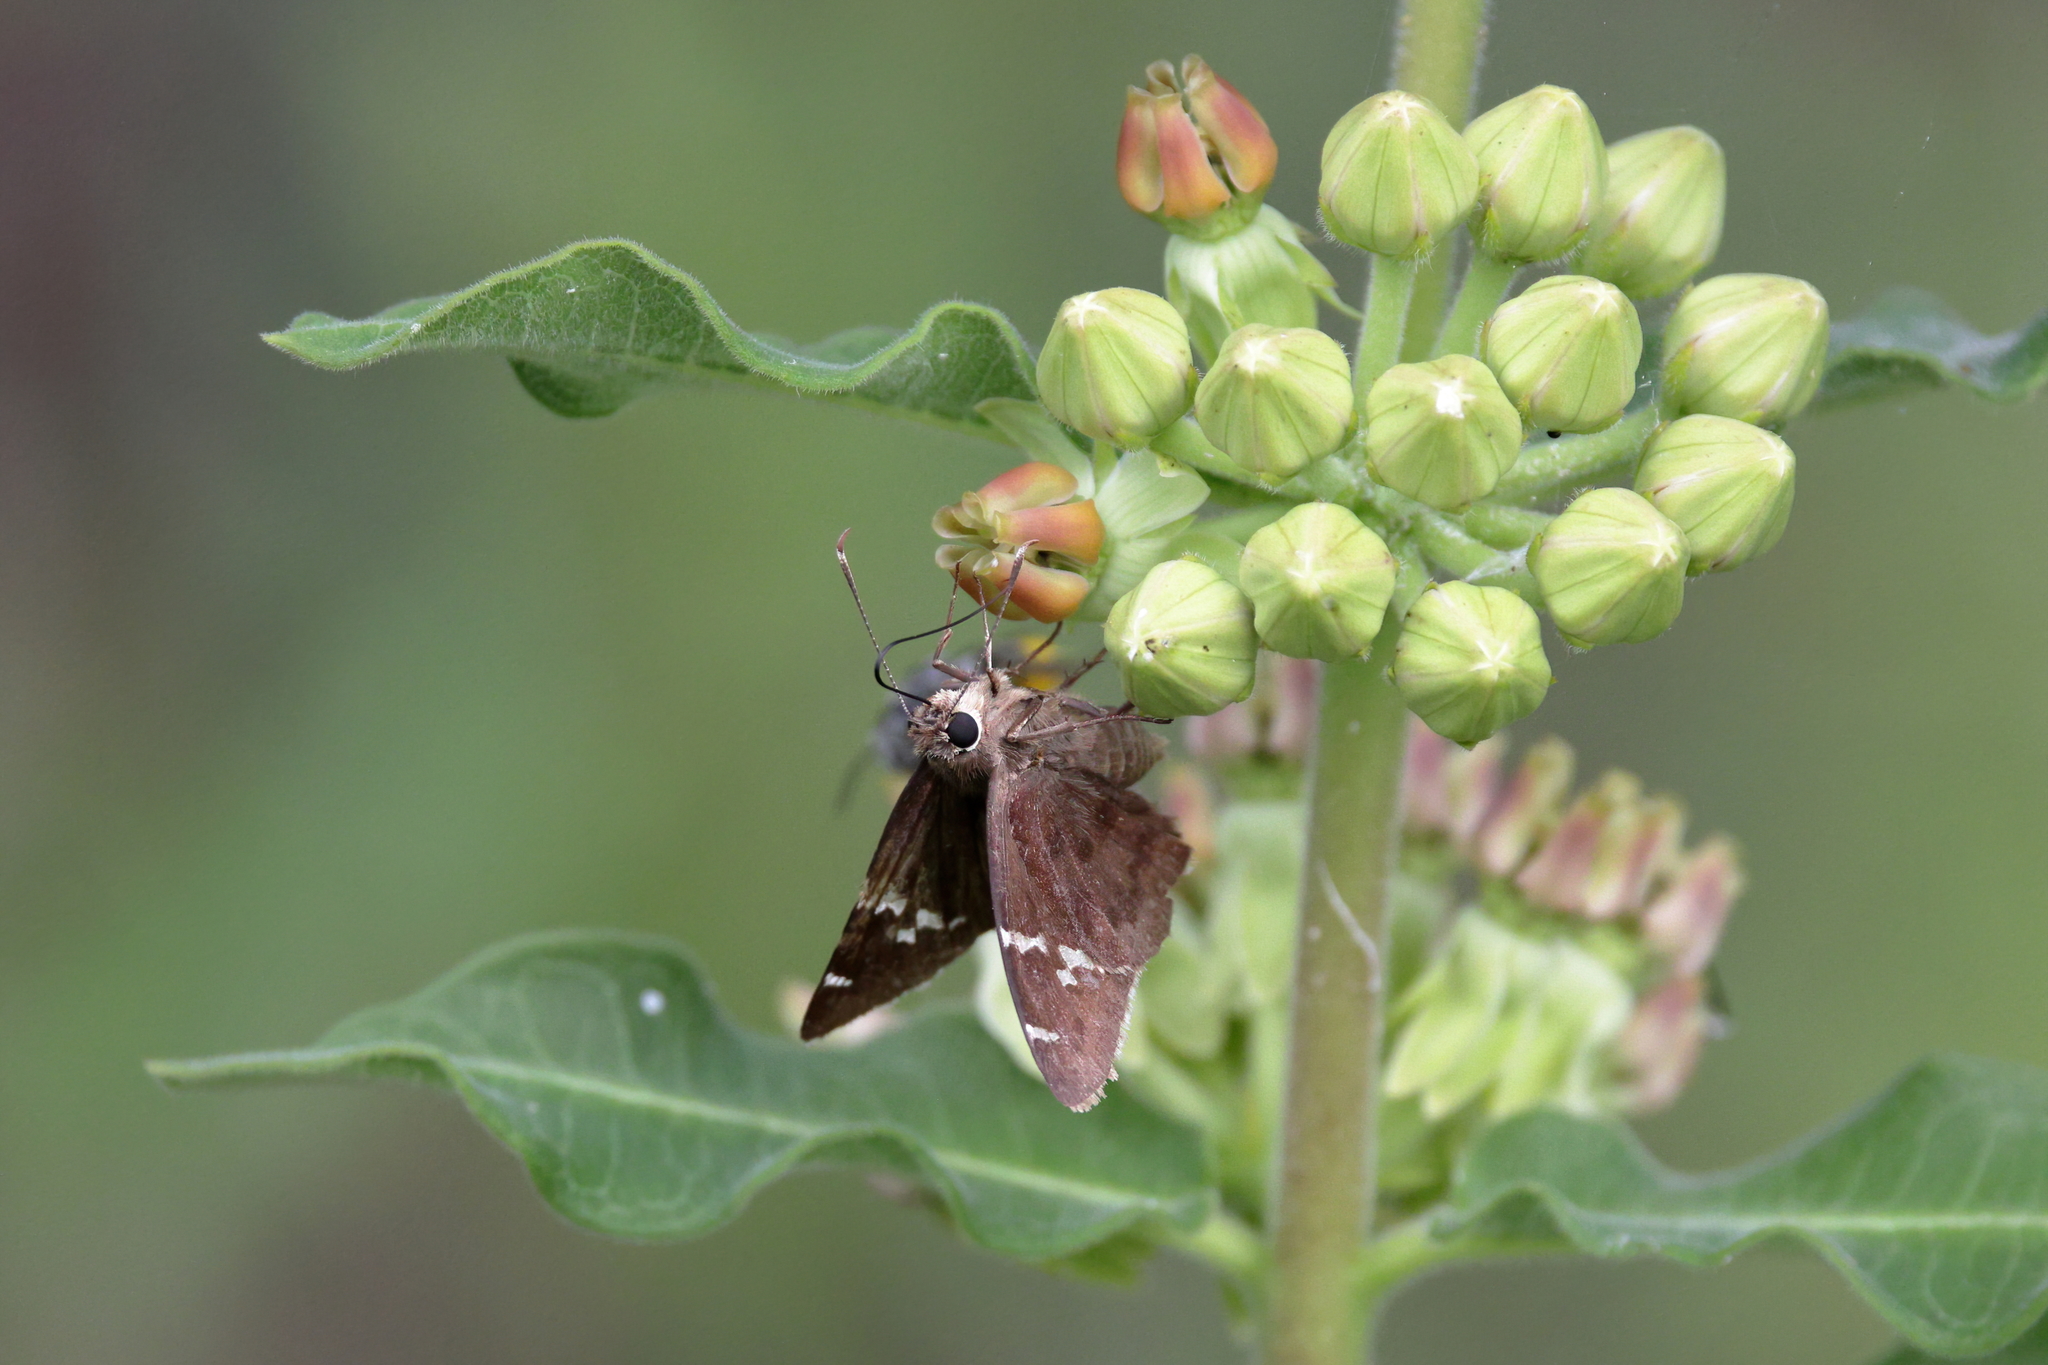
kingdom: Animalia
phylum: Arthropoda
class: Insecta
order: Lepidoptera
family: Hesperiidae
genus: Thorybes
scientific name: Thorybes daunus
